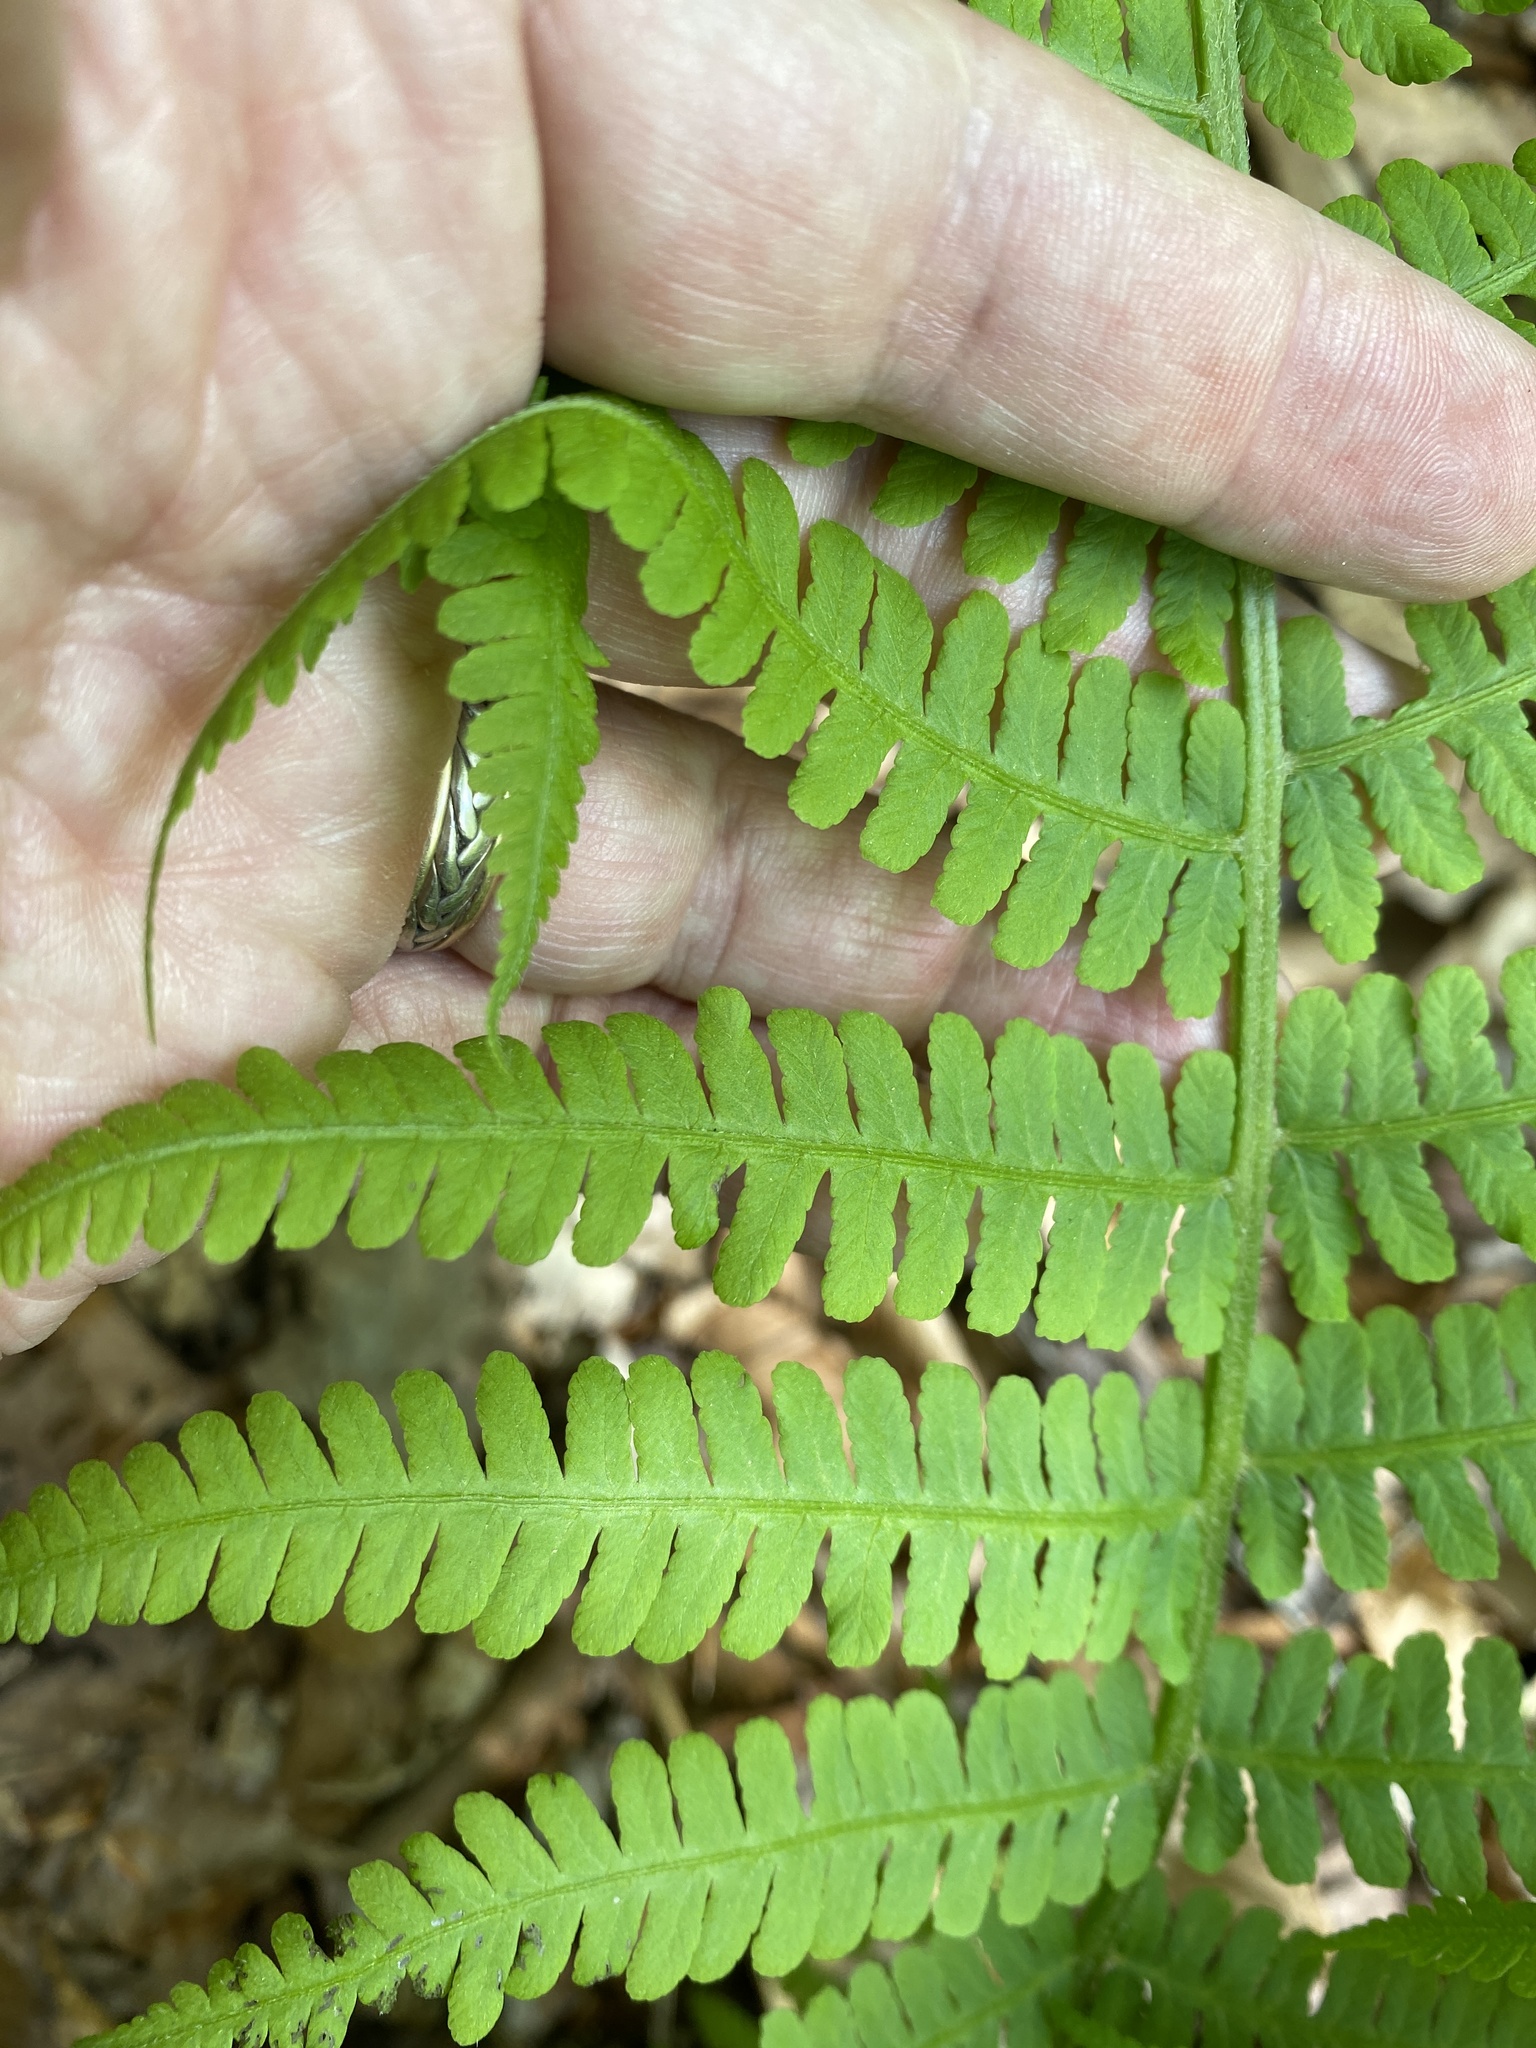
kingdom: Plantae
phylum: Tracheophyta
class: Polypodiopsida
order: Polypodiales
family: Athyriaceae
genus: Deparia
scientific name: Deparia acrostichoides
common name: Silver false spleenwort
